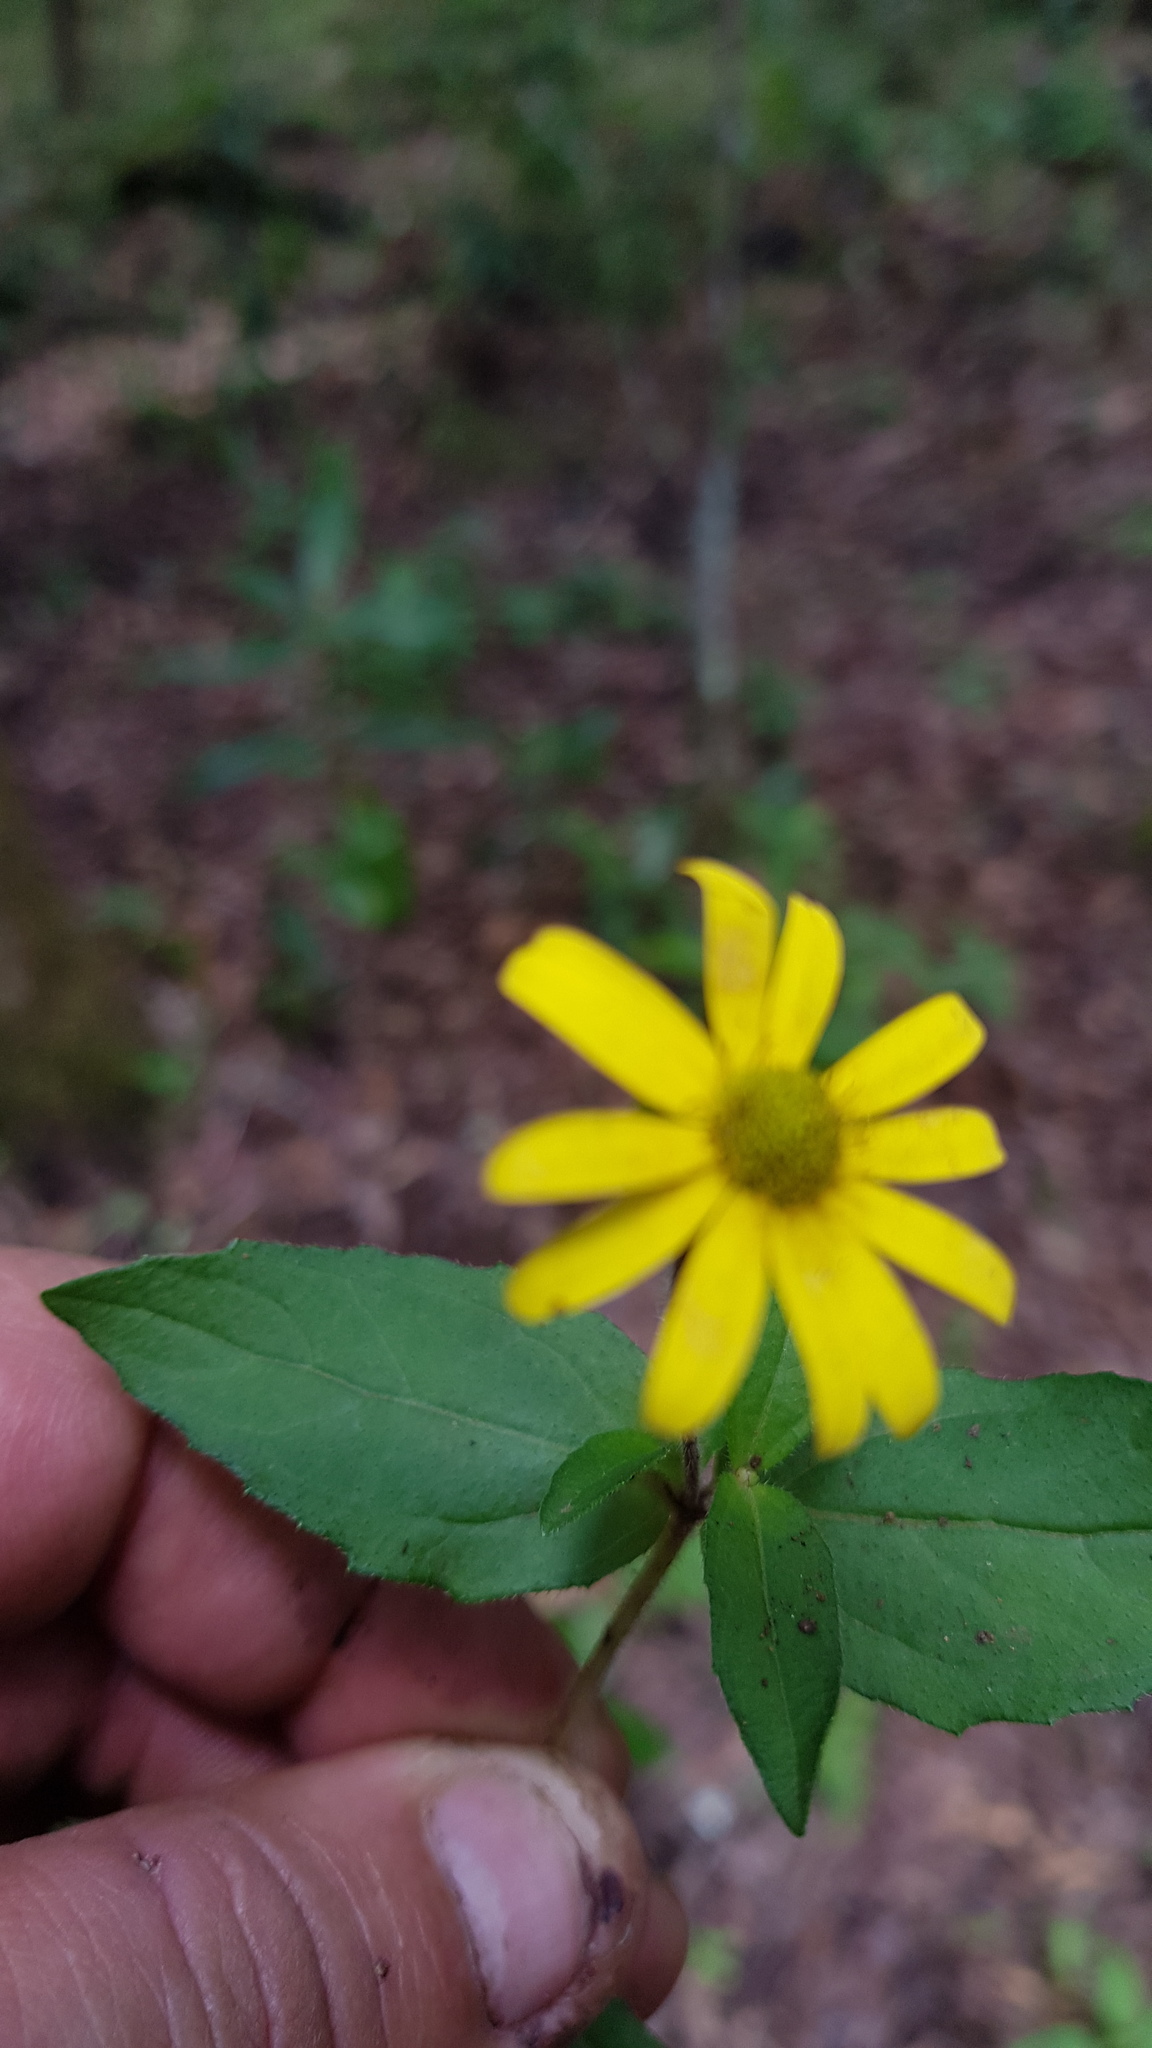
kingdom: Plantae
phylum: Tracheophyta
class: Magnoliopsida
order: Asterales
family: Asteraceae
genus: Melampodium
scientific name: Melampodium montanum
